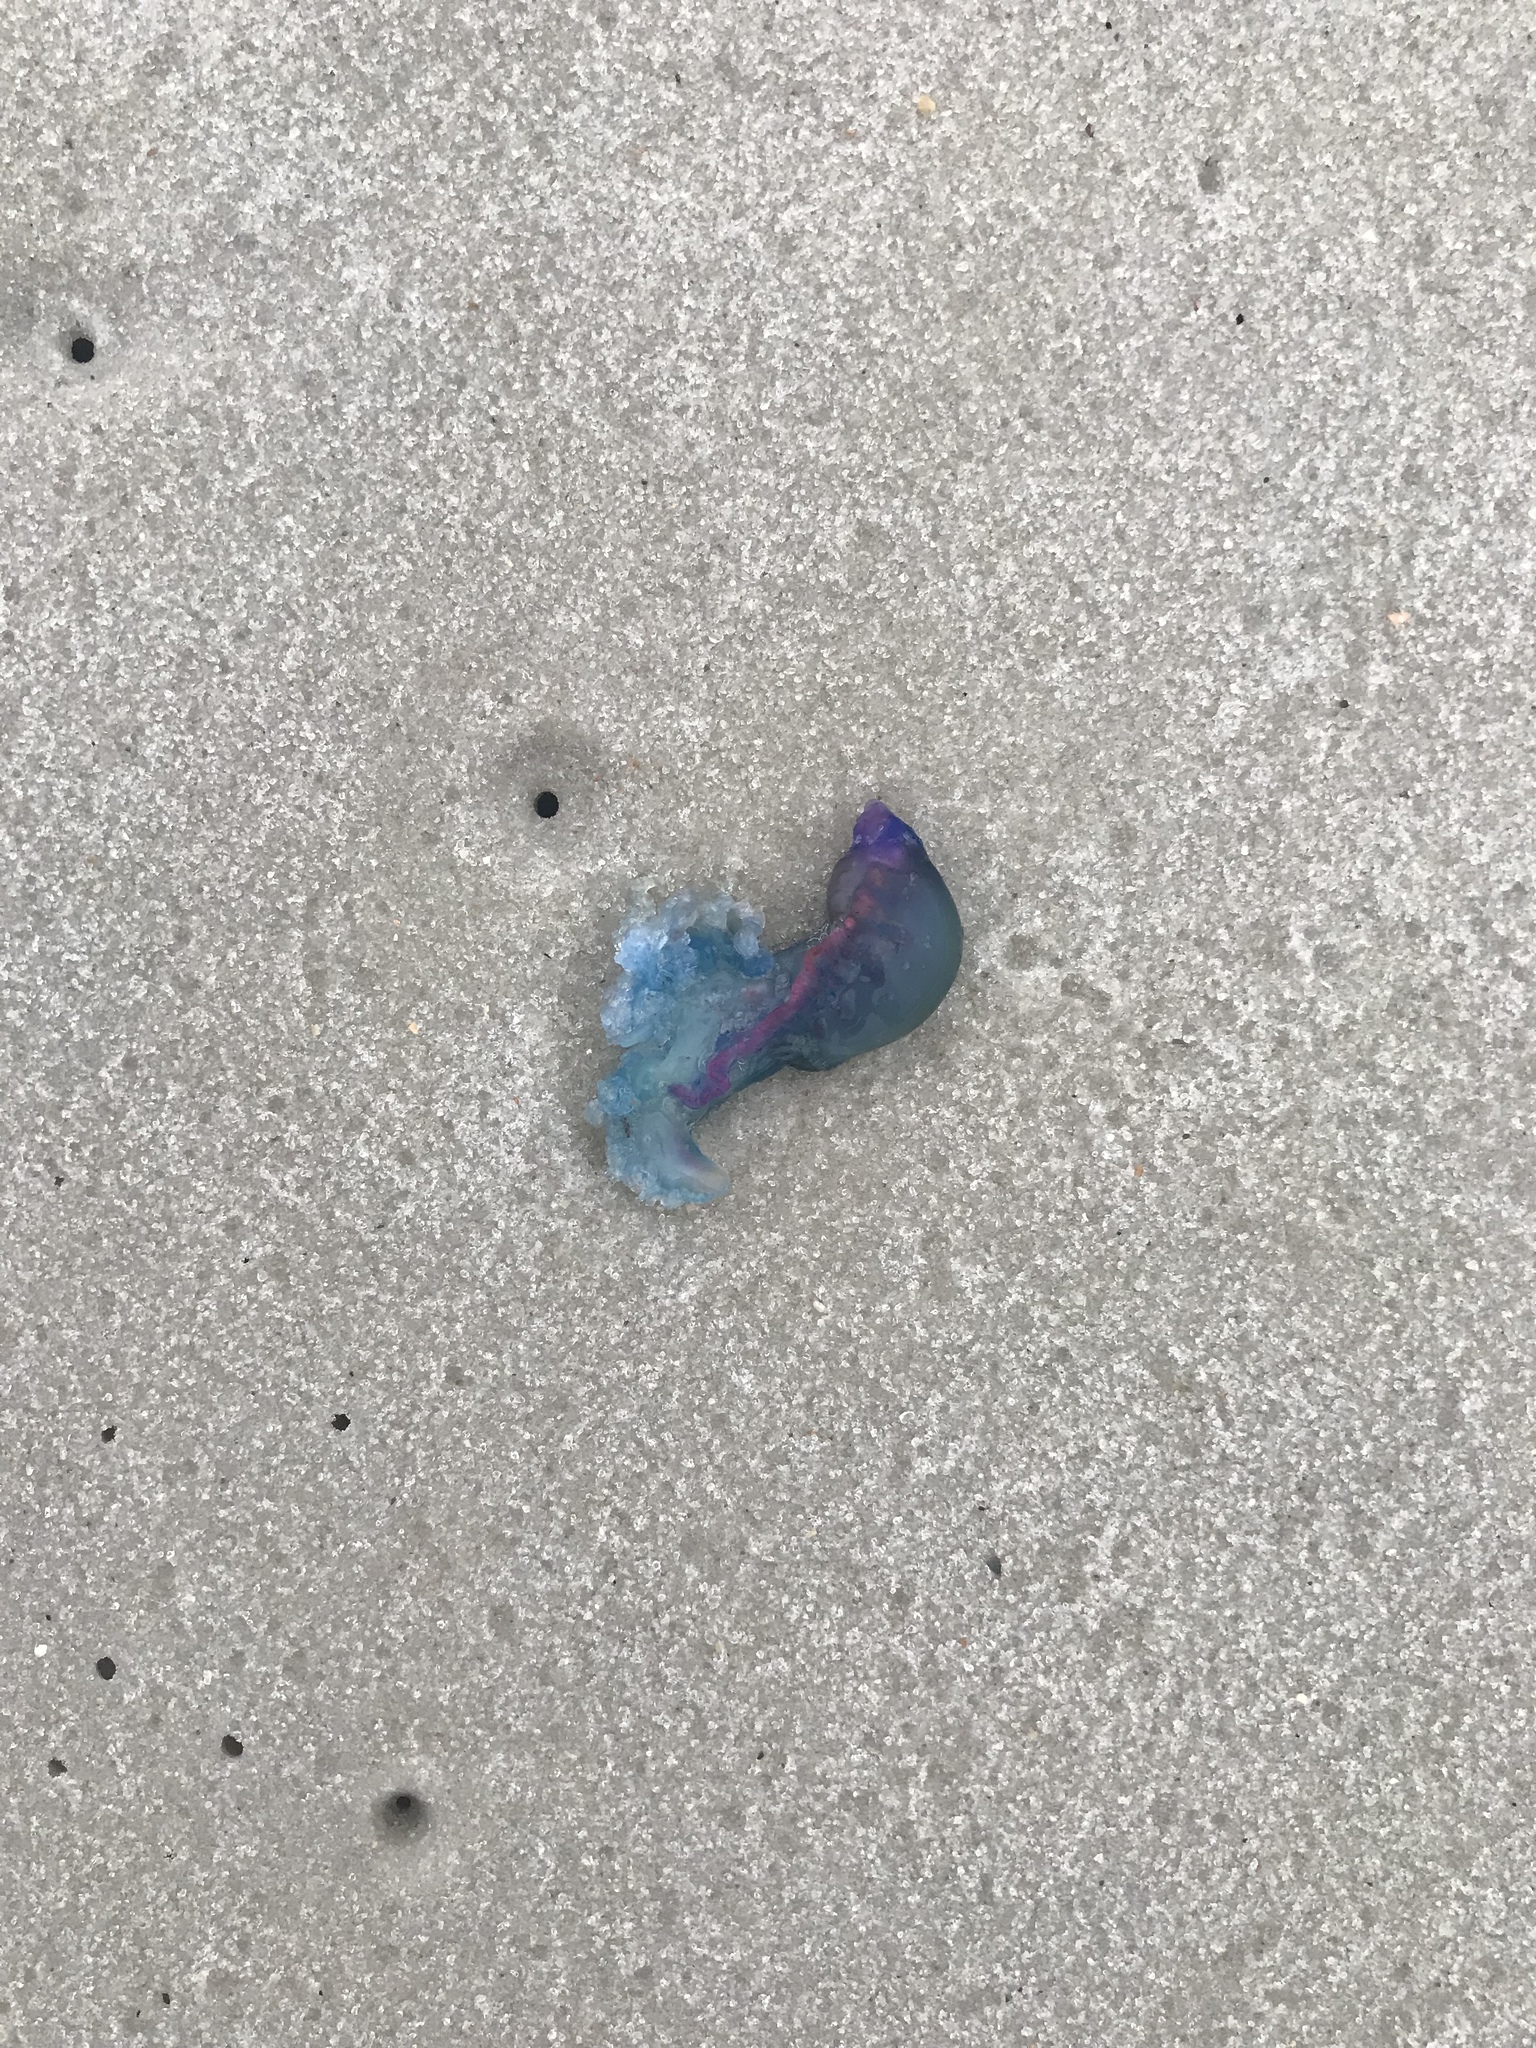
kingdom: Animalia
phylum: Cnidaria
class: Hydrozoa
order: Siphonophorae
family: Physaliidae
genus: Physalia
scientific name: Physalia physalis
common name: Portuguese man-of-war
